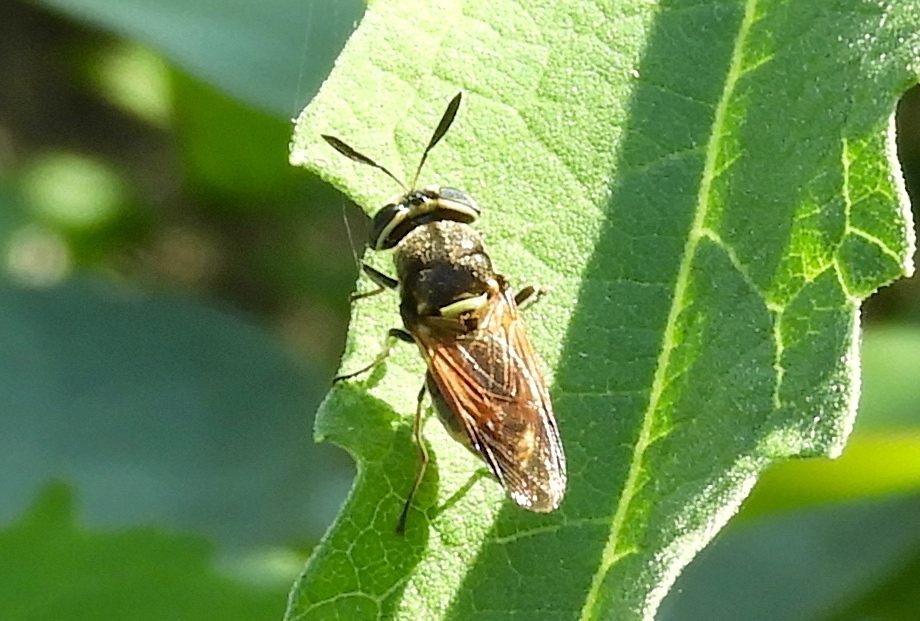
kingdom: Animalia
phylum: Arthropoda
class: Insecta
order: Diptera
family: Stratiomyidae
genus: Hoplitimyia
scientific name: Hoplitimyia mutabilis
